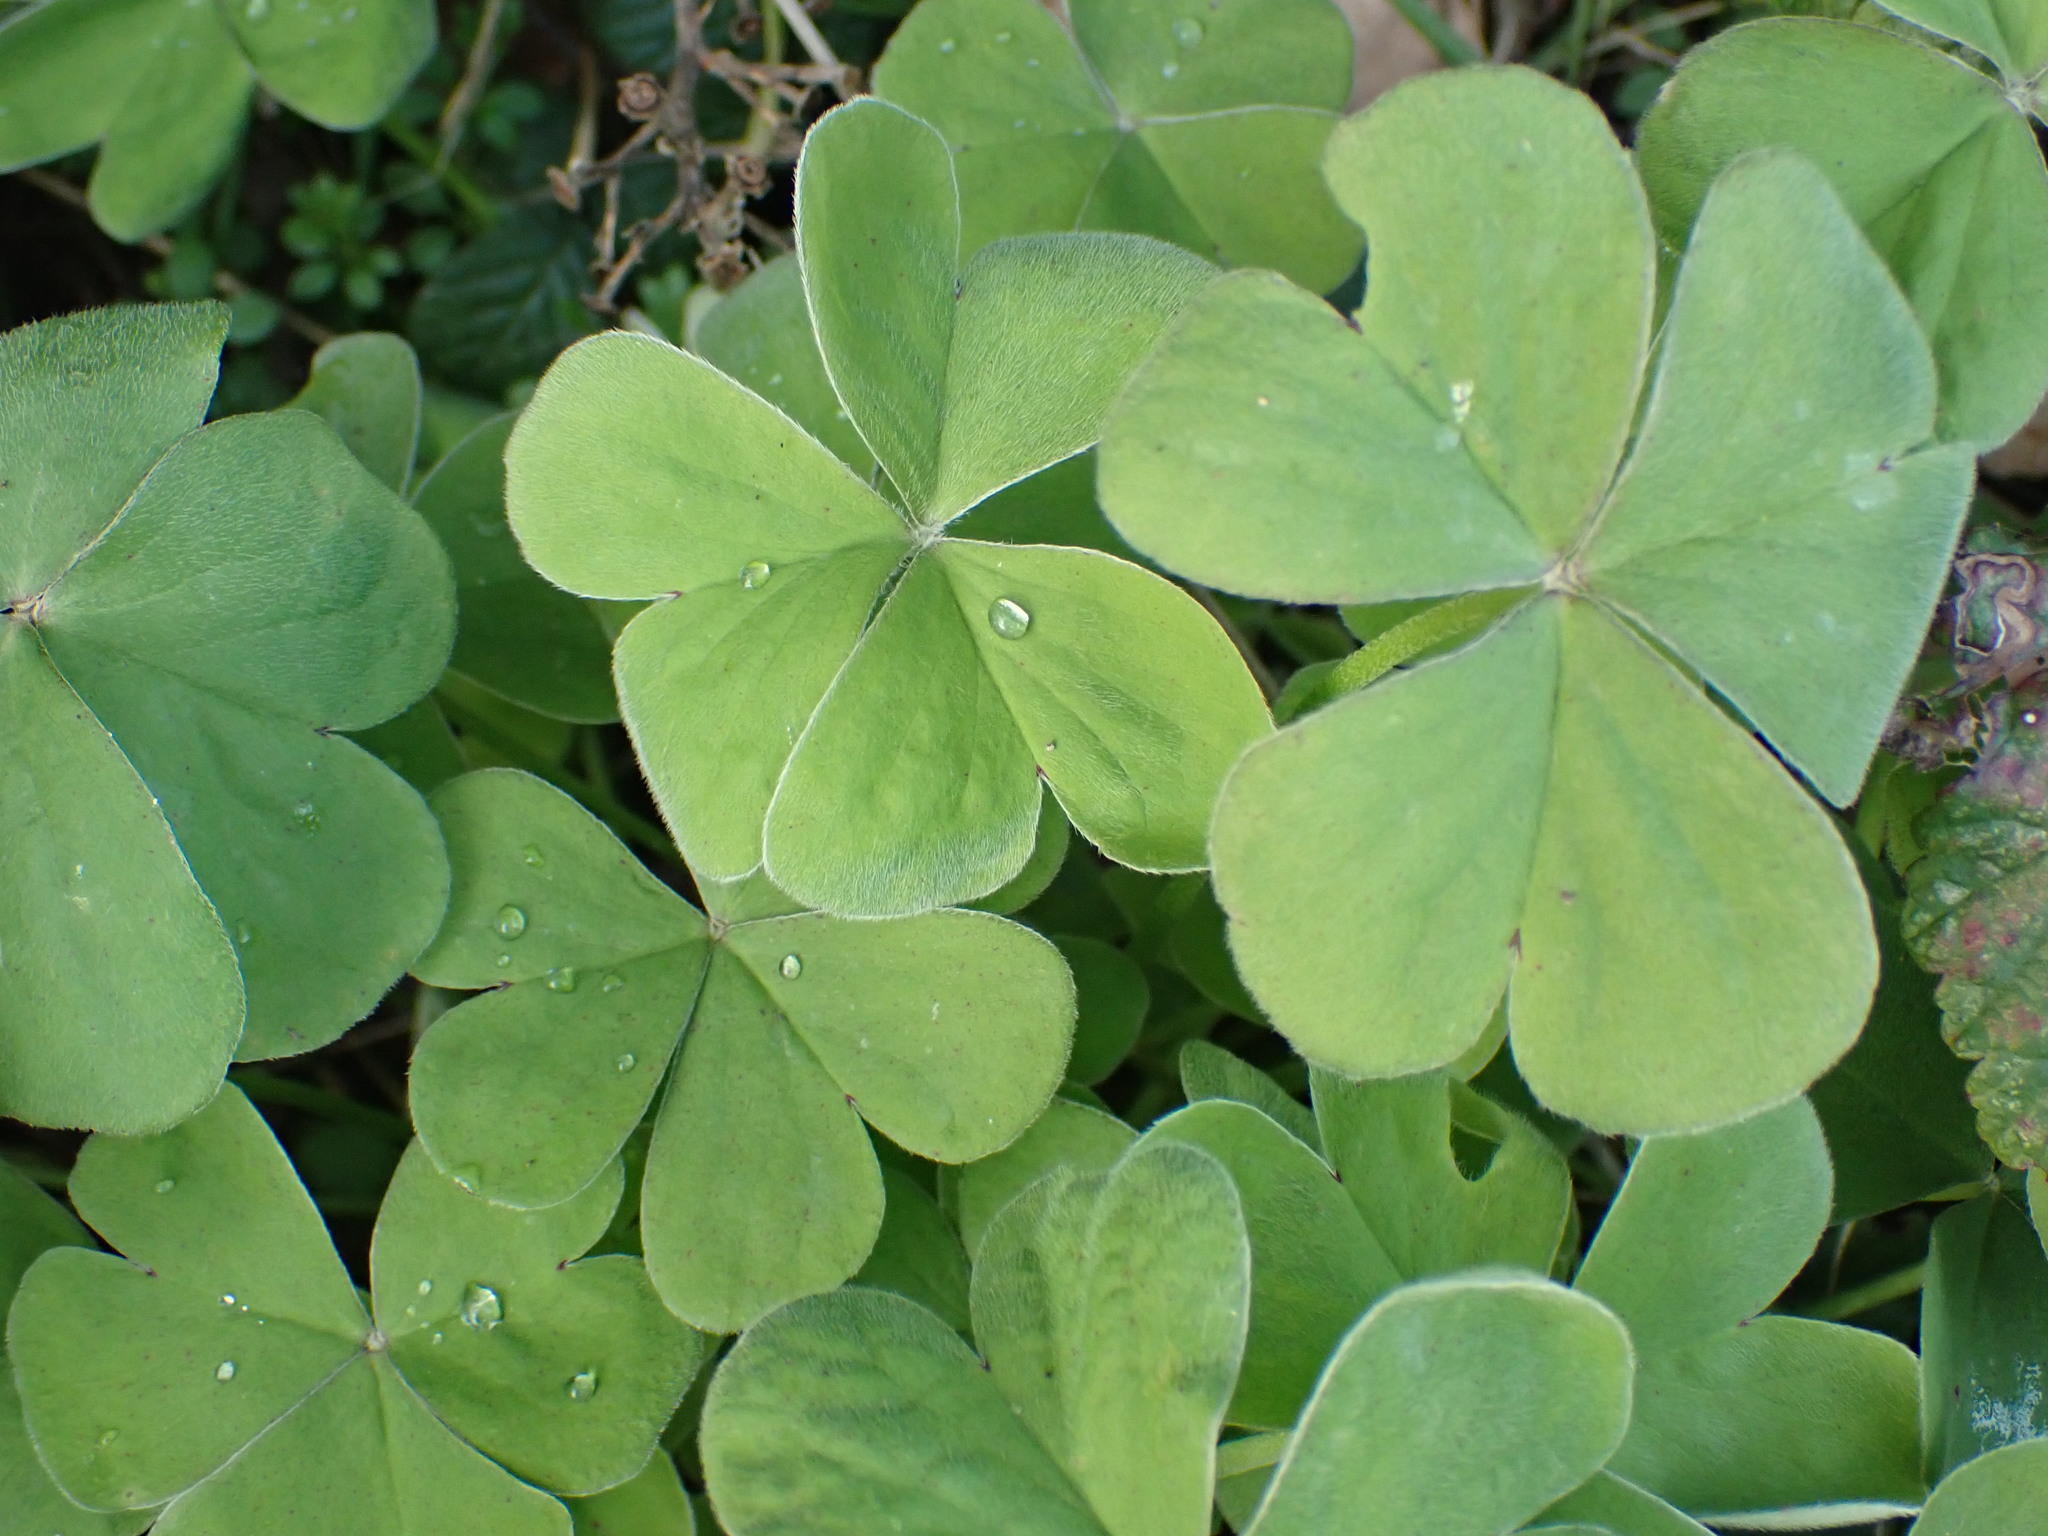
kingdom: Plantae
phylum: Tracheophyta
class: Magnoliopsida
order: Oxalidales
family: Oxalidaceae
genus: Oxalis
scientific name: Oxalis articulata
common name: Pink-sorrel
